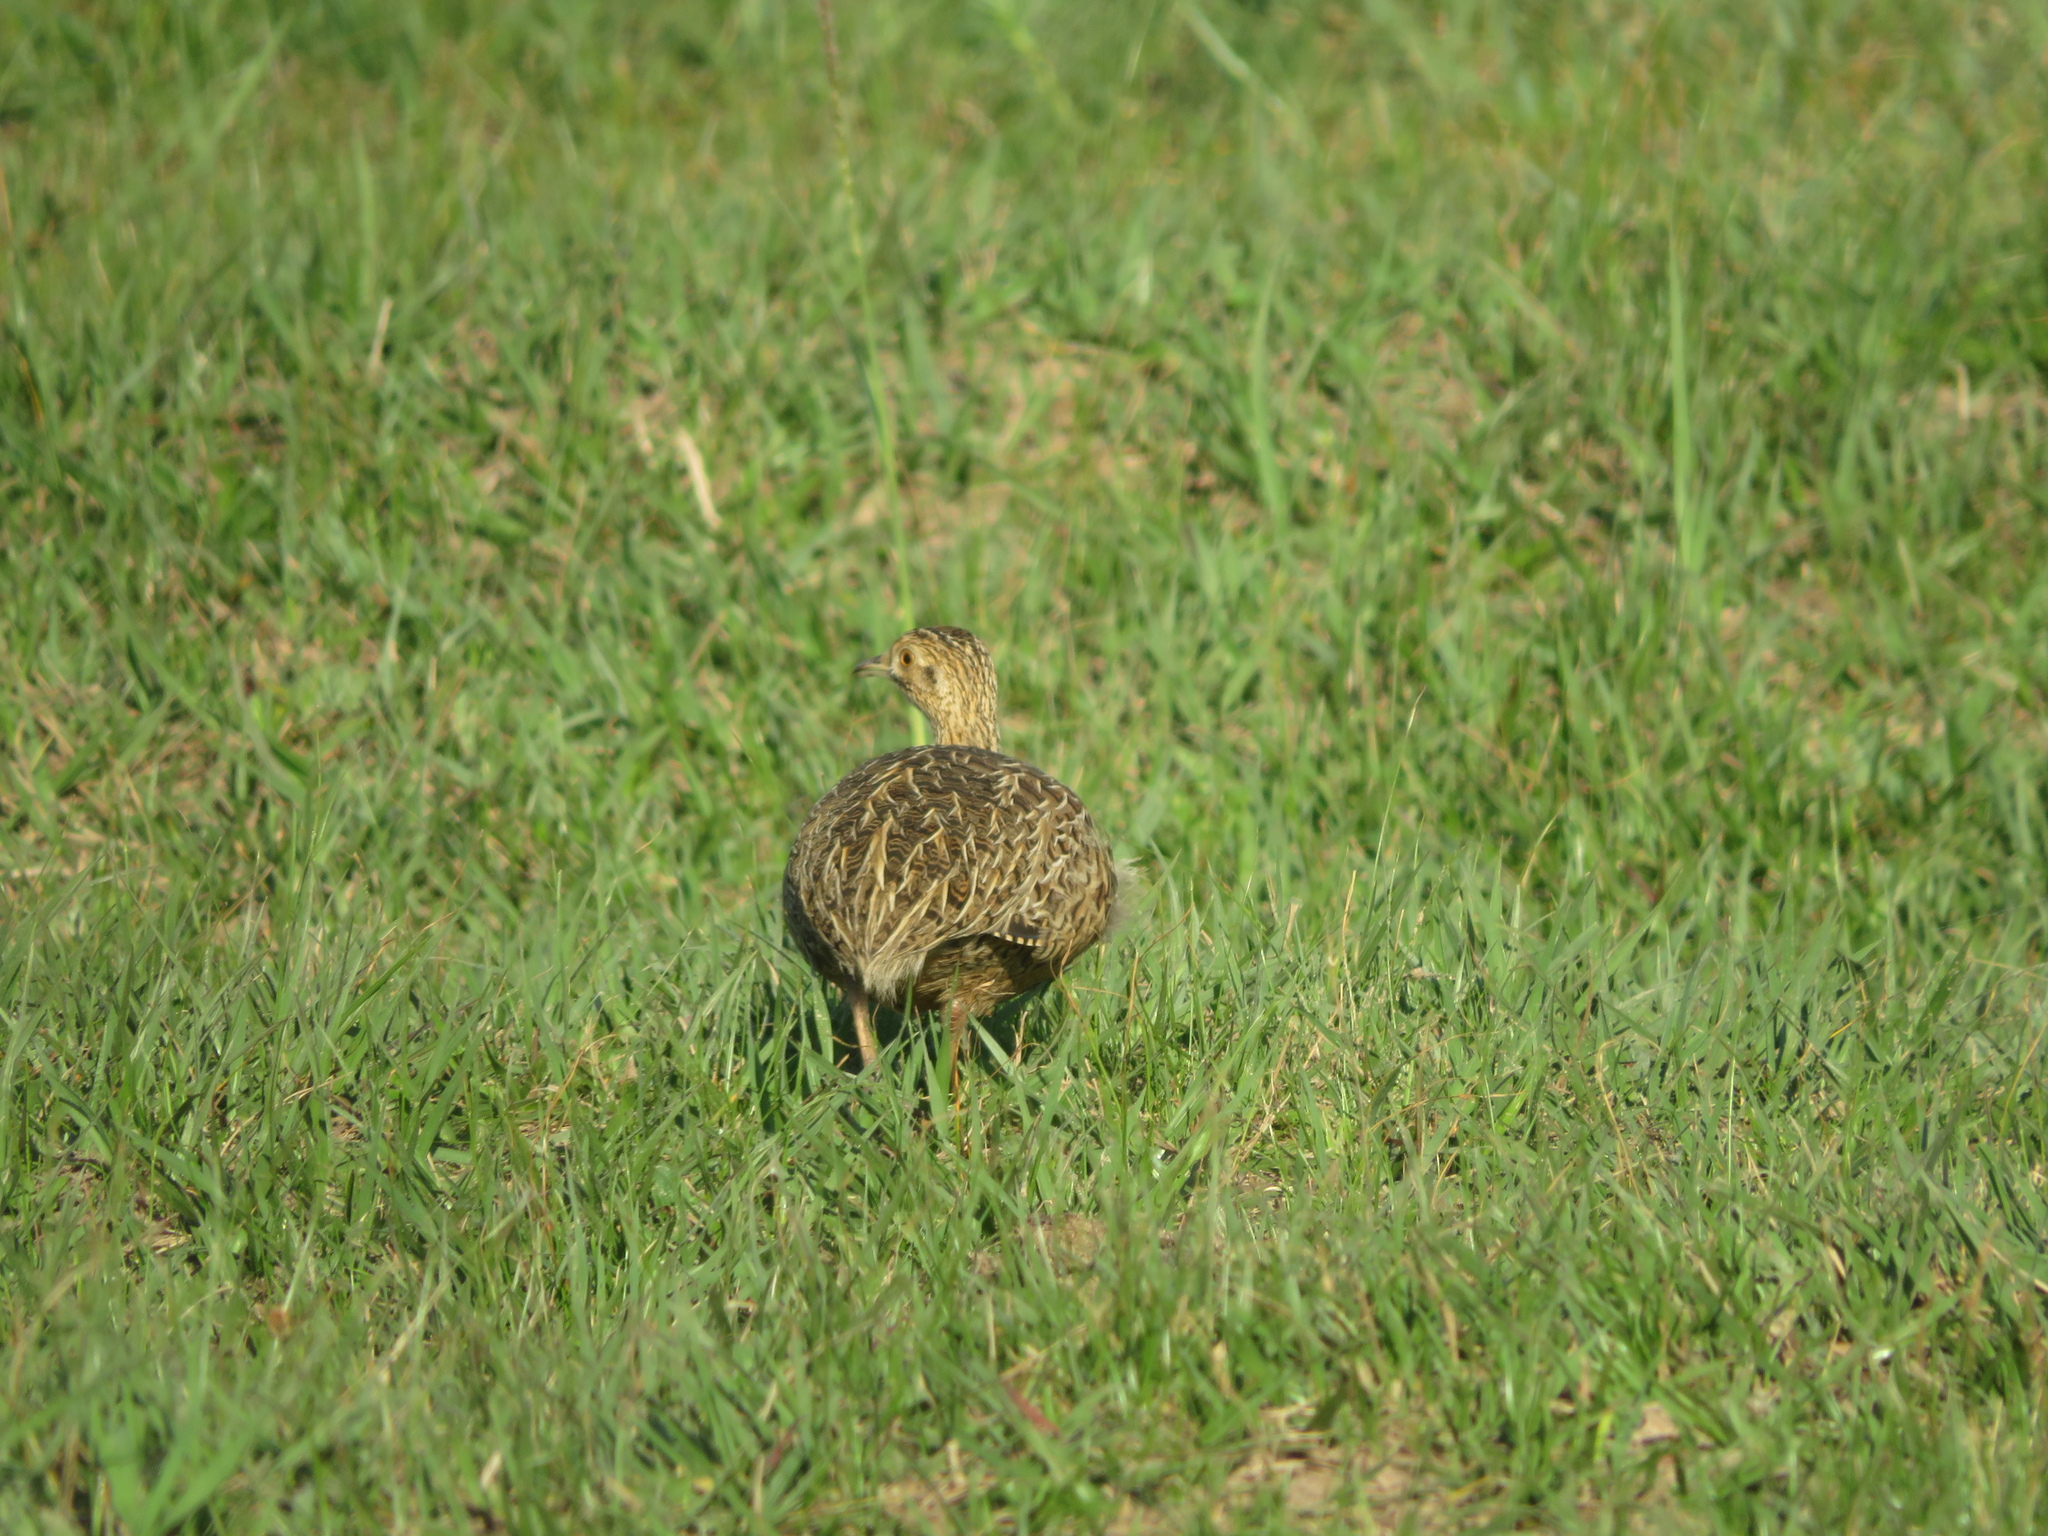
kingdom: Animalia
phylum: Chordata
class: Aves
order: Tinamiformes
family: Tinamidae
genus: Nothura
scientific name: Nothura maculosa
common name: Spotted nothura
